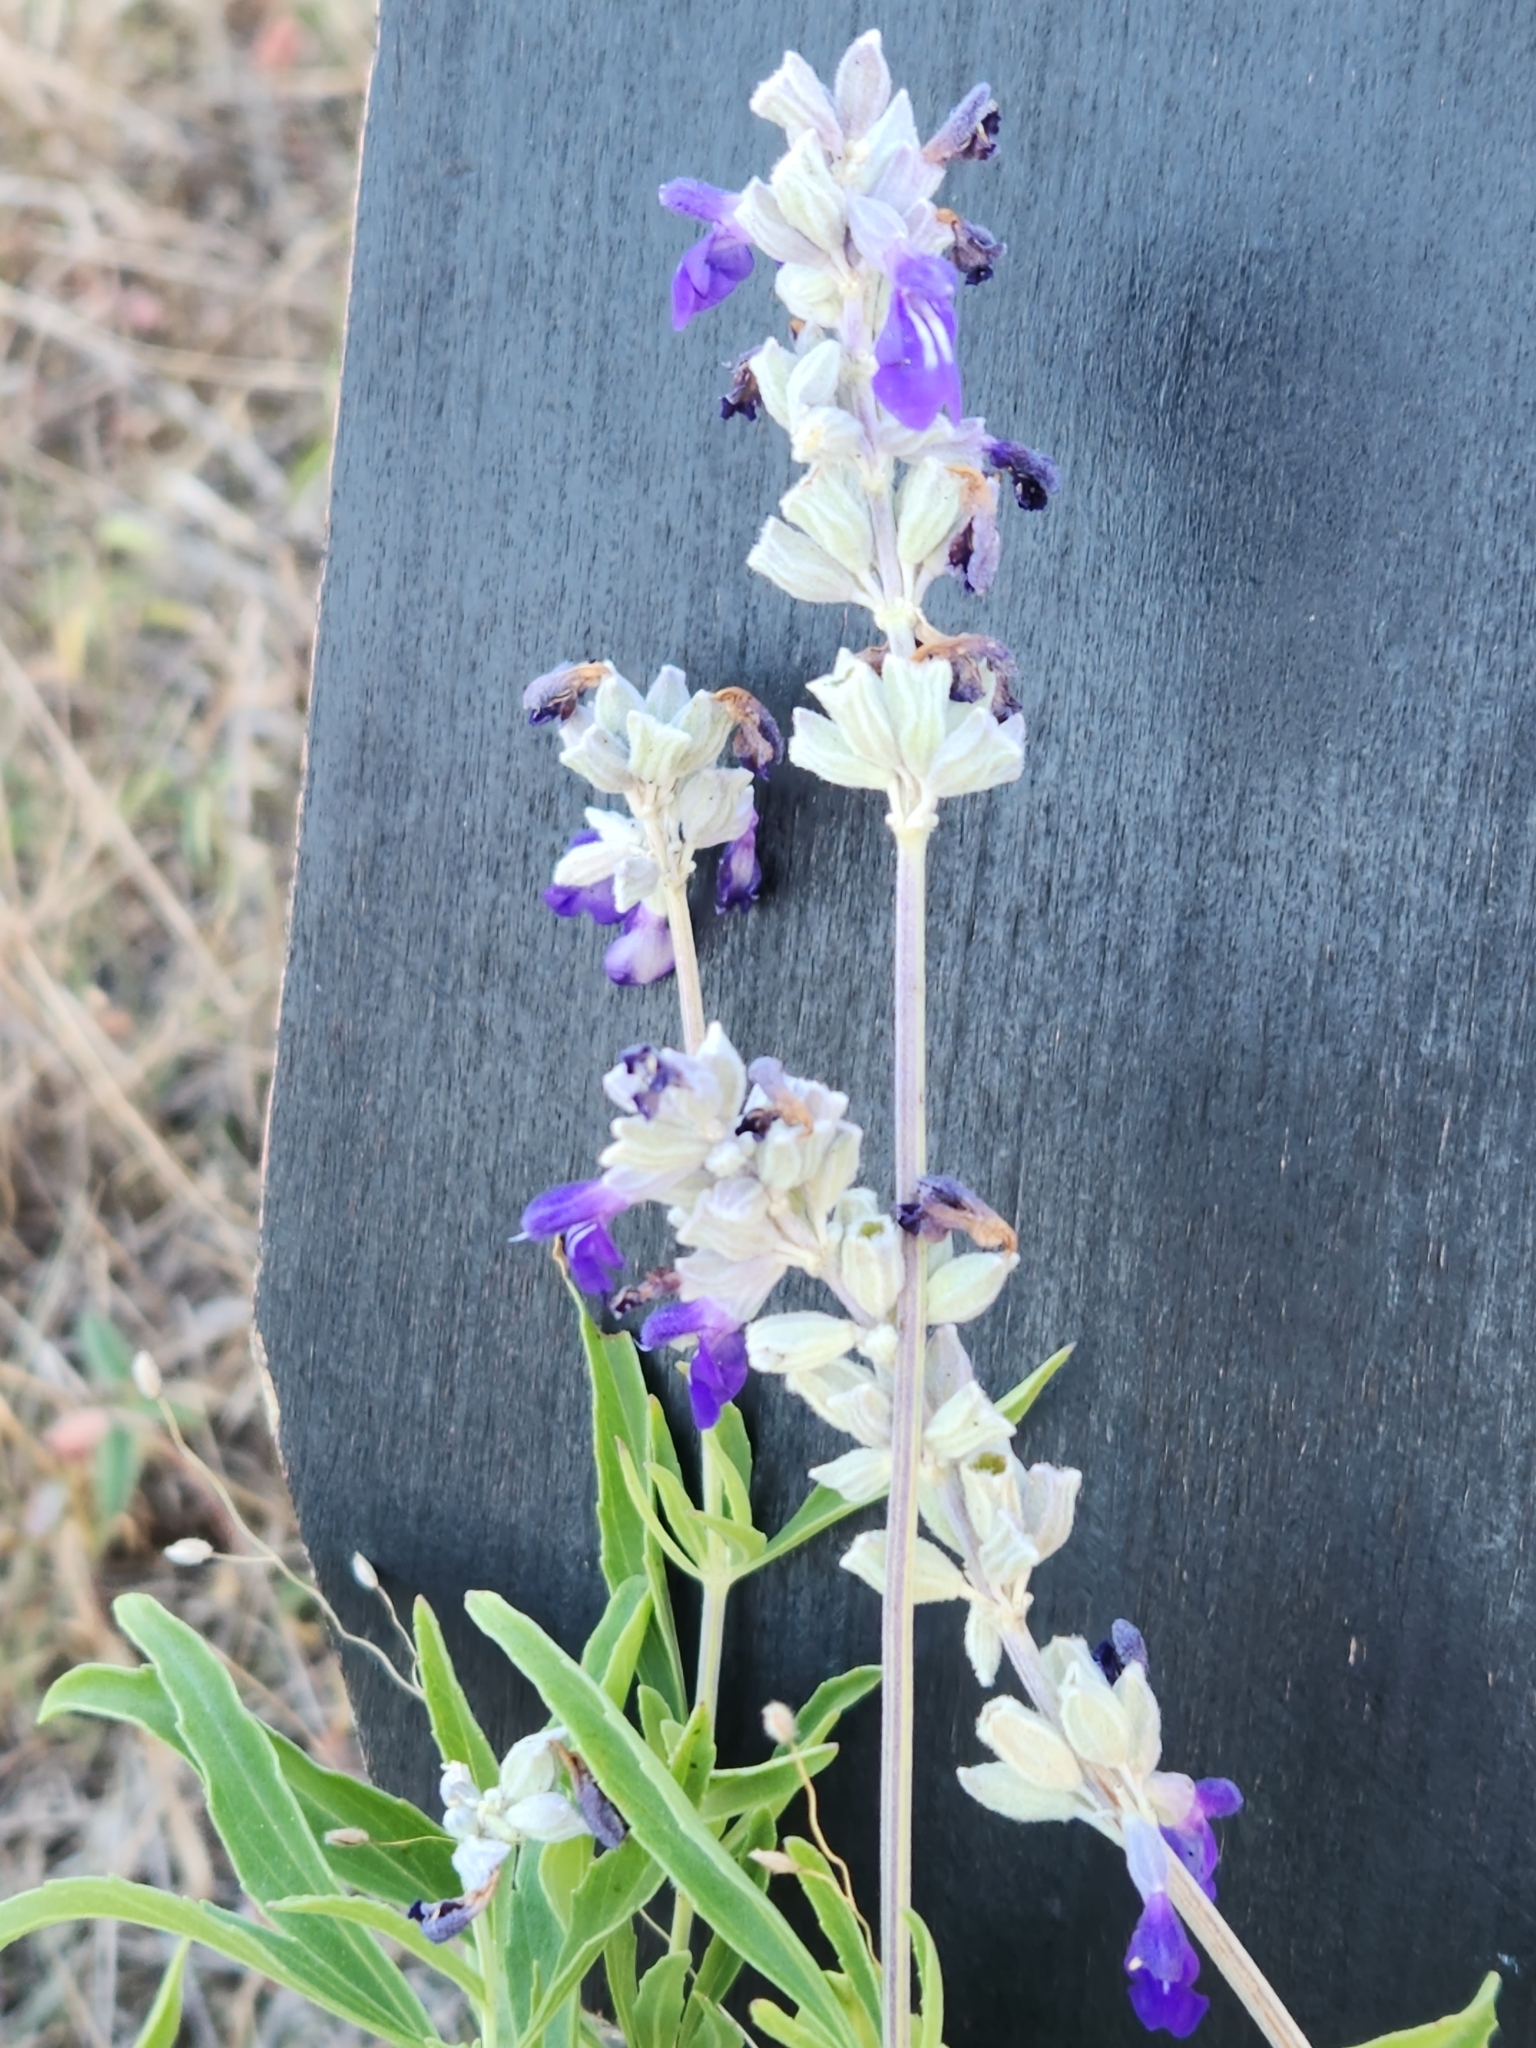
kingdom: Plantae
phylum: Tracheophyta
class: Magnoliopsida
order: Lamiales
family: Lamiaceae
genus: Salvia
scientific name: Salvia farinacea
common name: Mealy sage
